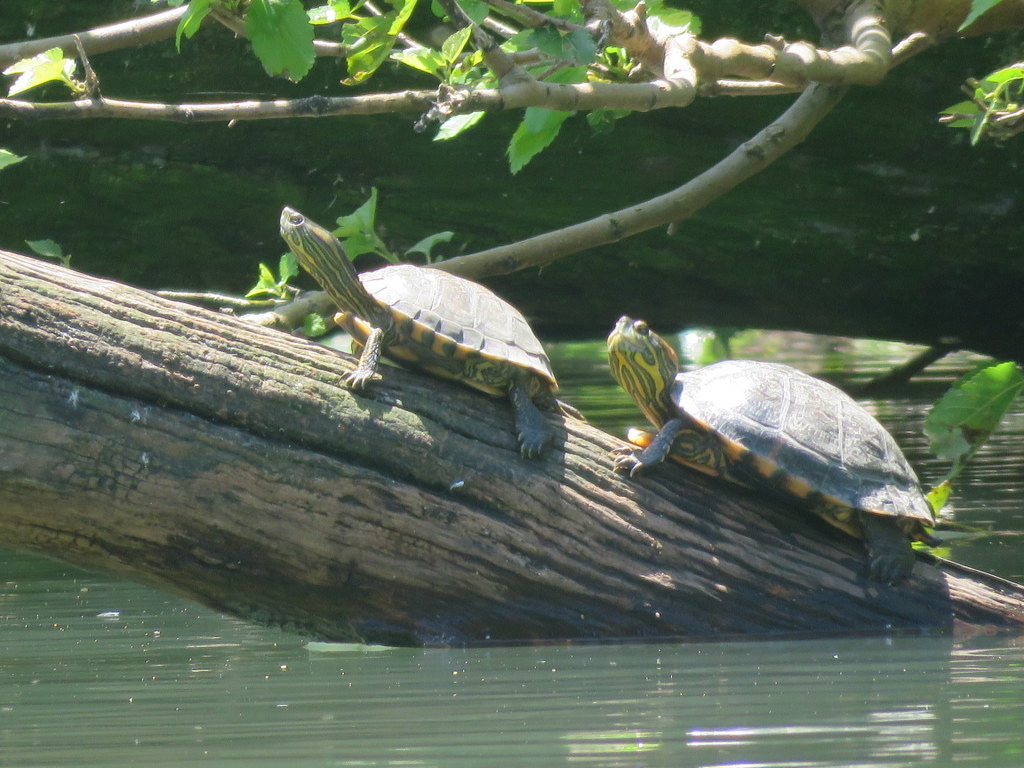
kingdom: Animalia
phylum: Chordata
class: Testudines
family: Emydidae
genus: Trachemys
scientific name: Trachemys dorbigni
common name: Black-bellied slider
